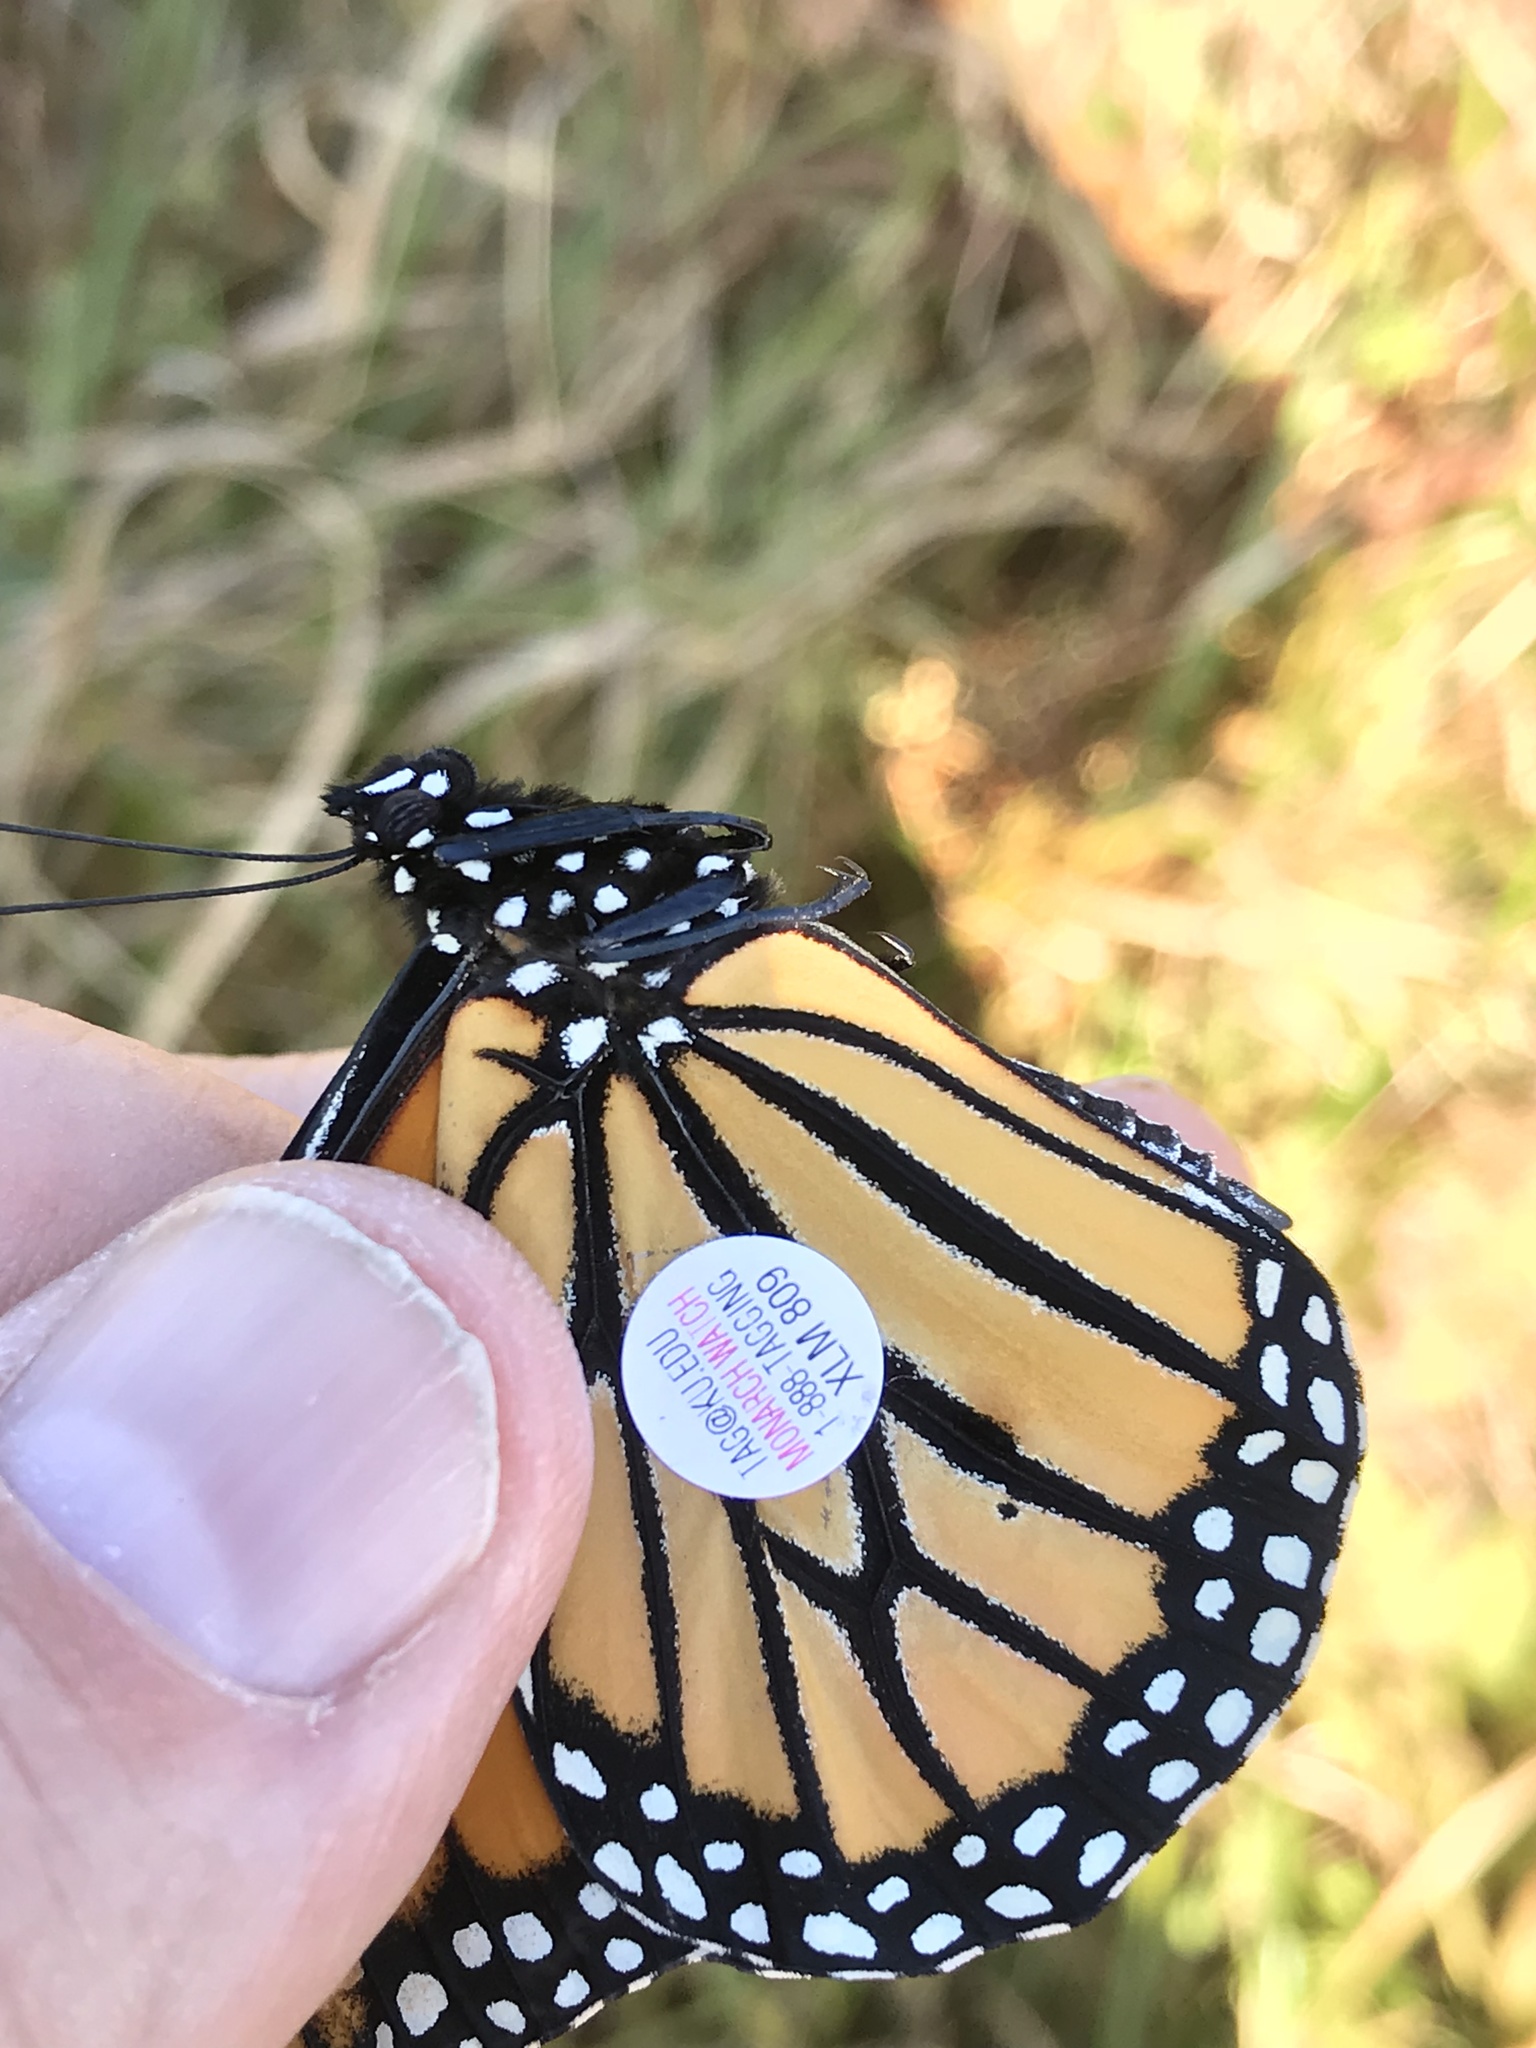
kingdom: Animalia
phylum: Arthropoda
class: Insecta
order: Lepidoptera
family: Nymphalidae
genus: Danaus
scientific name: Danaus plexippus
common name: Monarch
